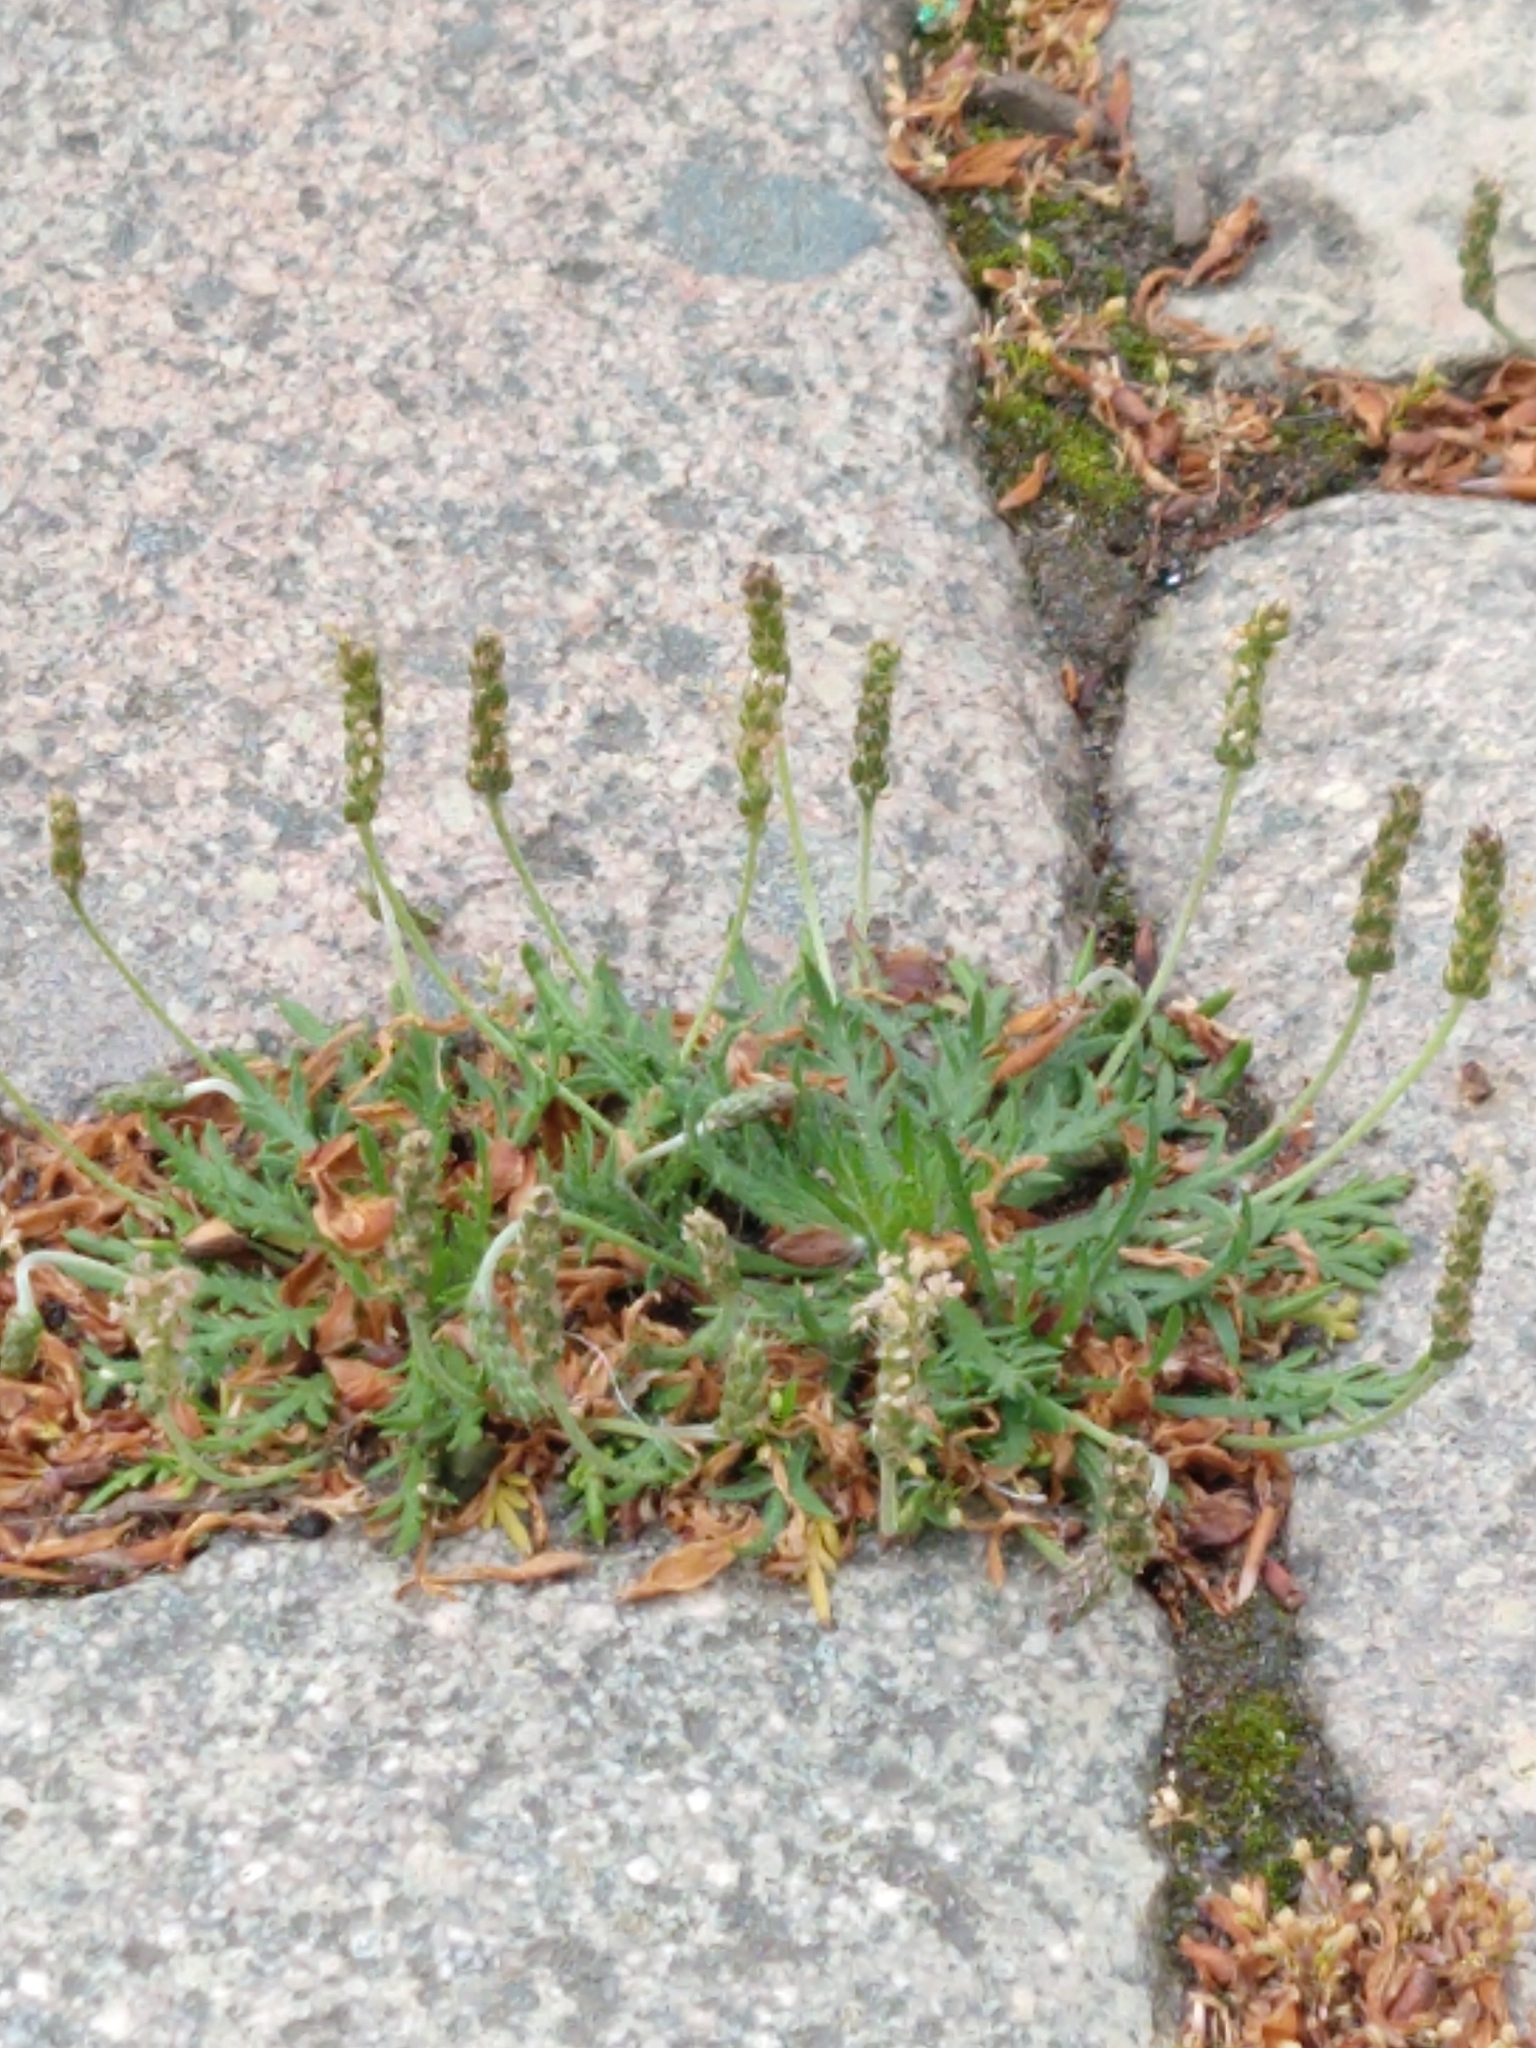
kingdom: Plantae
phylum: Tracheophyta
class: Magnoliopsida
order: Lamiales
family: Plantaginaceae
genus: Plantago
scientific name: Plantago coronopus
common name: Buck's-horn plantain
